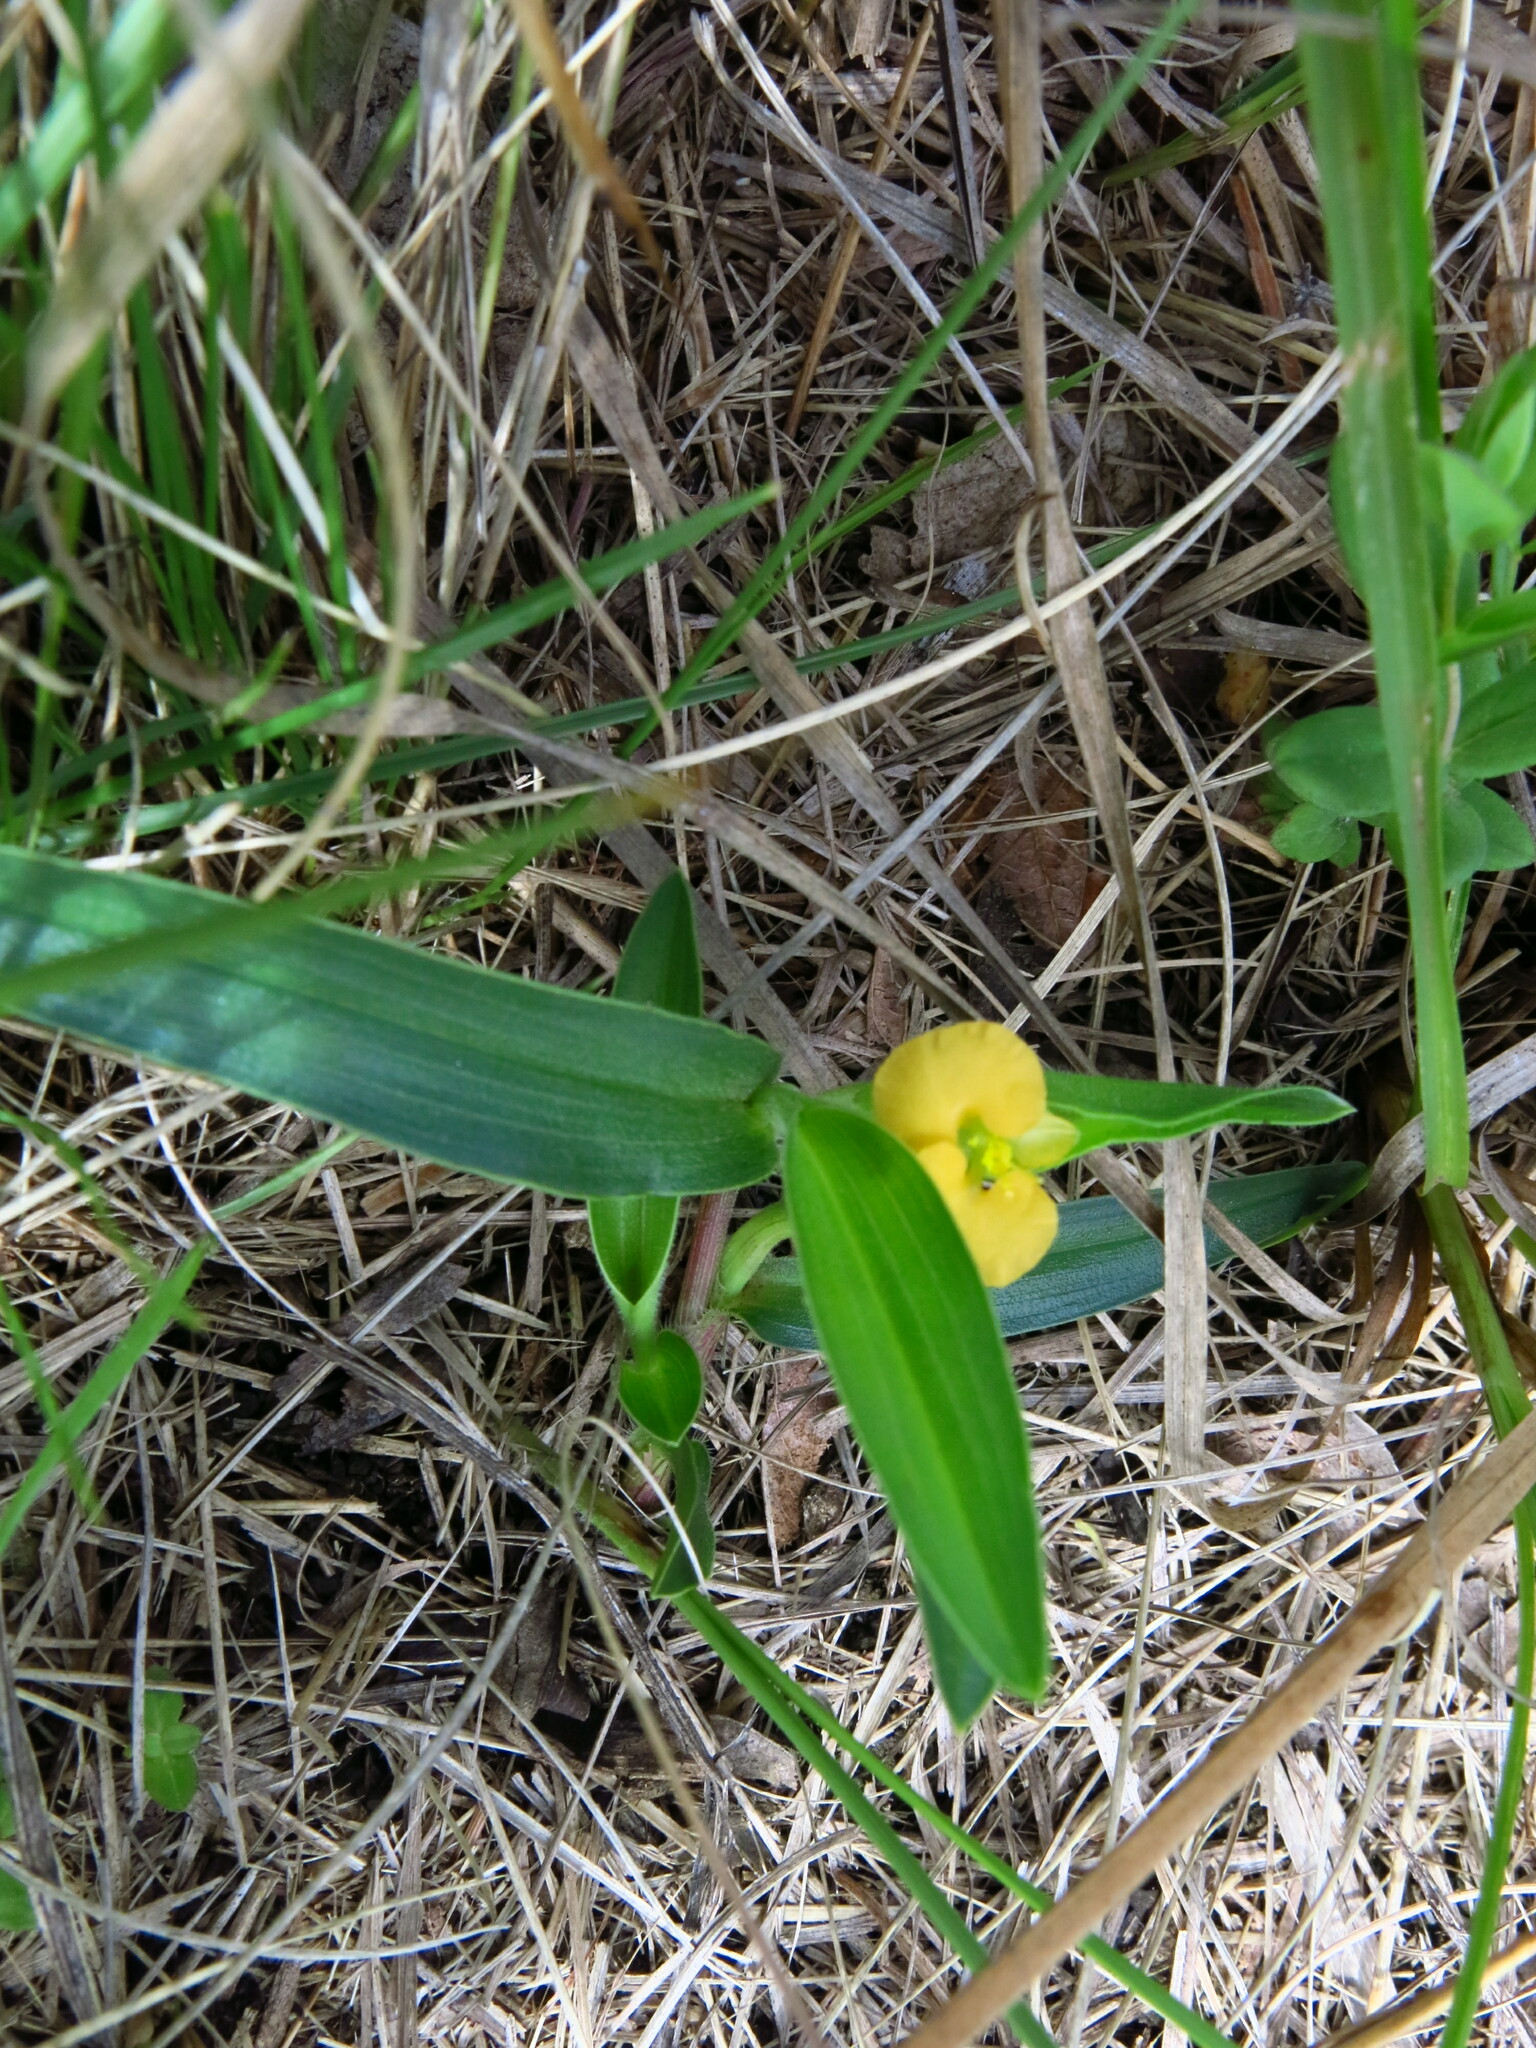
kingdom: Plantae
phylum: Tracheophyta
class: Liliopsida
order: Commelinales
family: Commelinaceae
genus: Commelina
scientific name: Commelina africana
